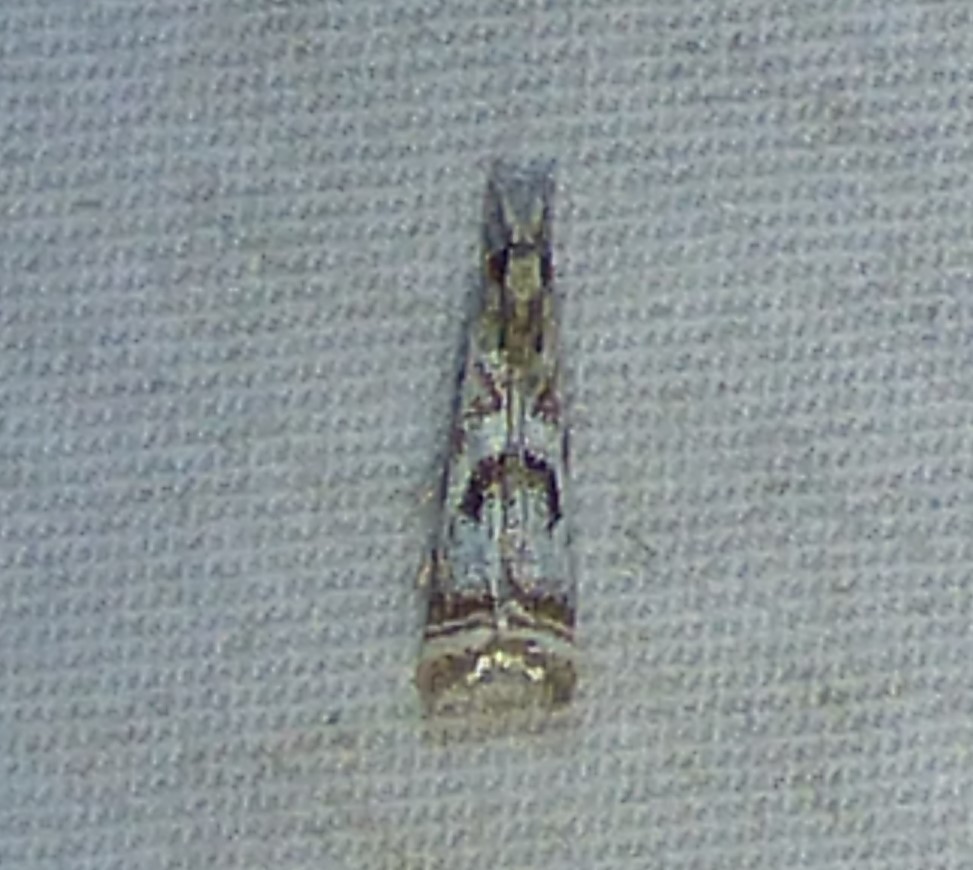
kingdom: Animalia
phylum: Arthropoda
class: Insecta
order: Lepidoptera
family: Crambidae
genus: Microcrambus
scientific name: Microcrambus elegans
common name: Elegant grass-veneer
